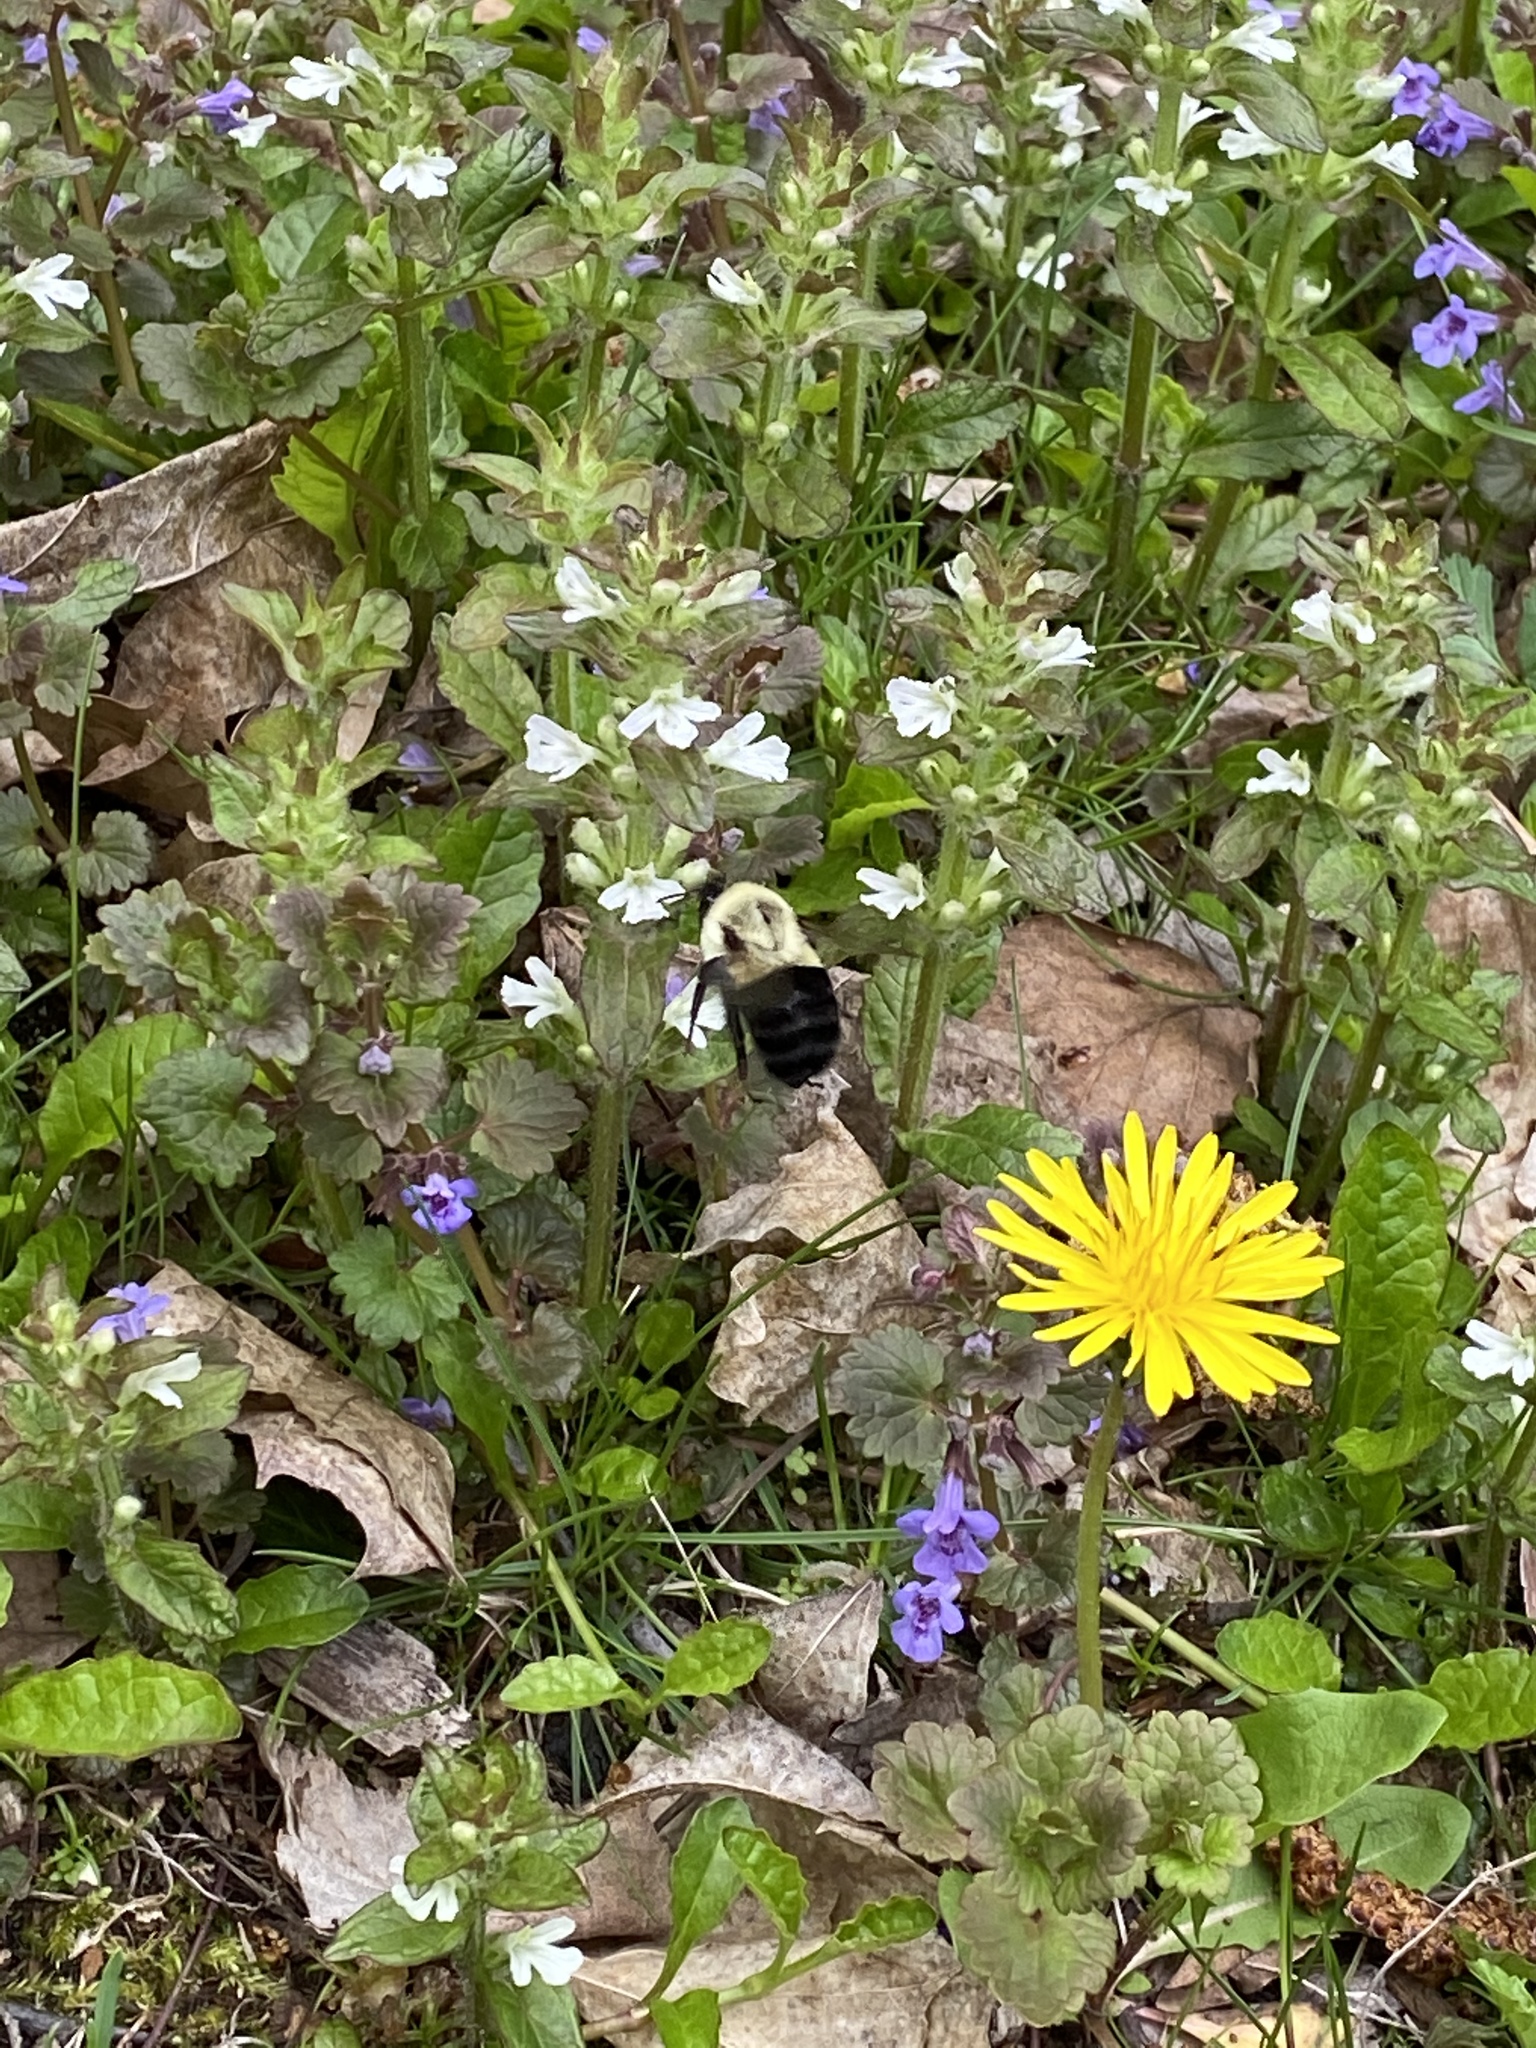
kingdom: Animalia
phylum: Arthropoda
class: Insecta
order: Hymenoptera
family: Apidae
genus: Bombus
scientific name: Bombus impatiens
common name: Common eastern bumble bee
